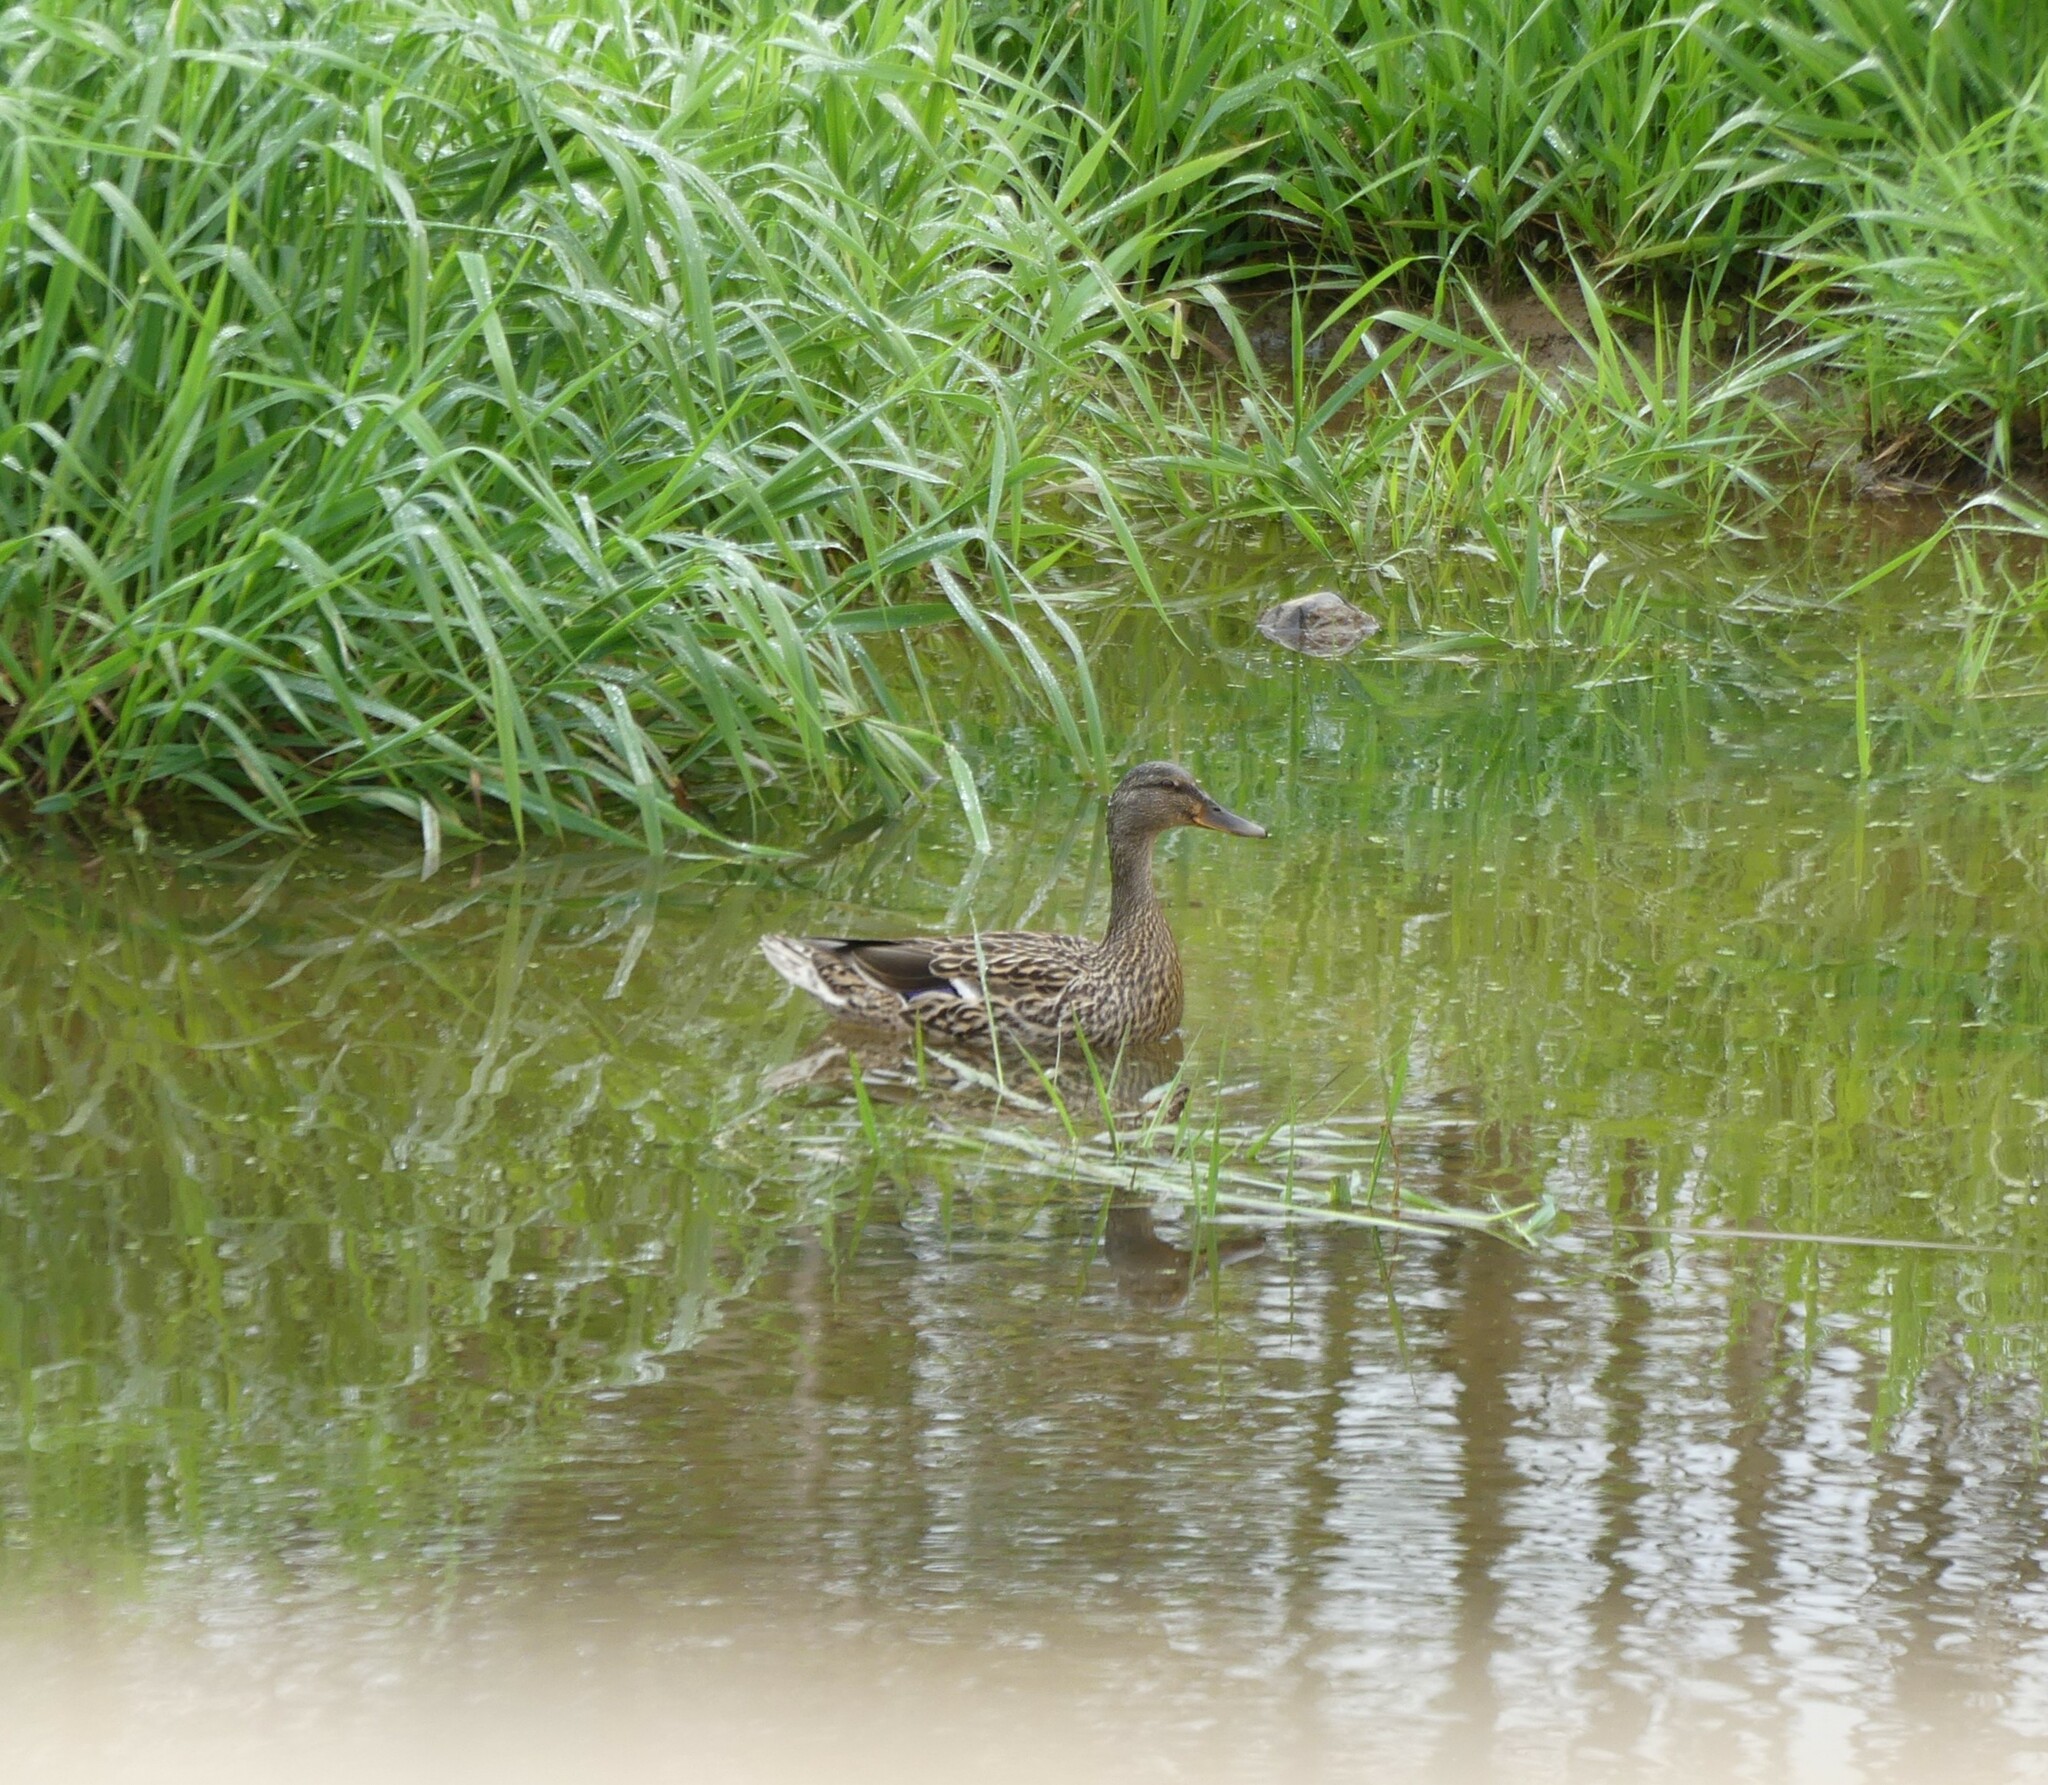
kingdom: Animalia
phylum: Chordata
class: Aves
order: Anseriformes
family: Anatidae
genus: Anas
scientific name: Anas platyrhynchos
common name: Mallard
